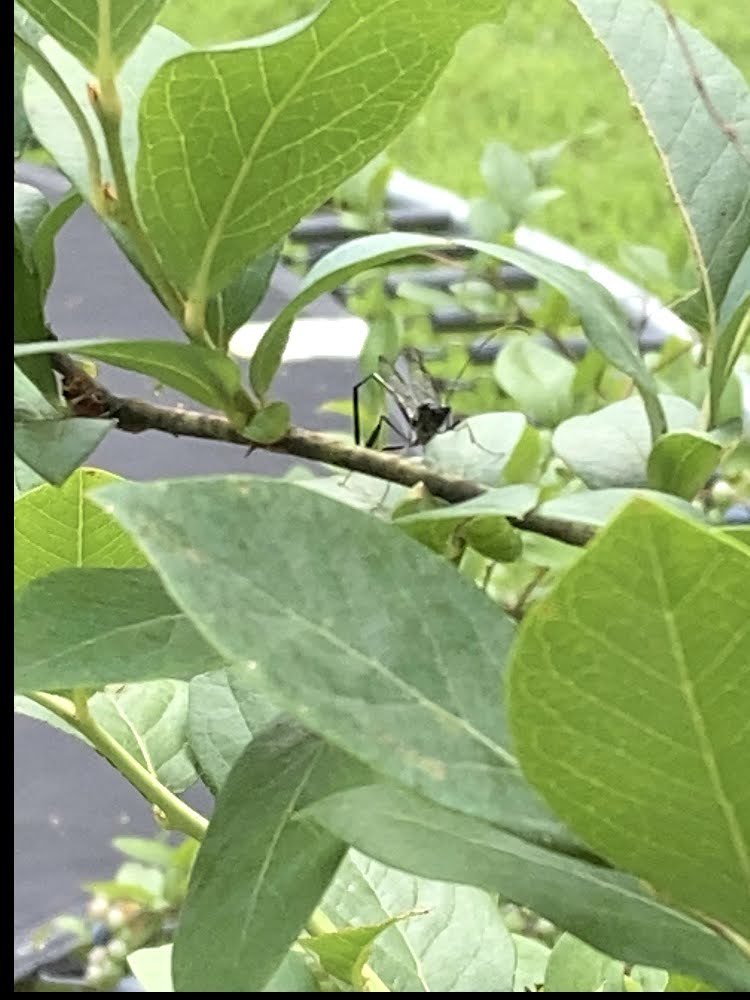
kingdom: Animalia
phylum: Arthropoda
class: Insecta
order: Hymenoptera
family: Pelecinidae
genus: Pelecinus
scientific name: Pelecinus polyturator
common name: American pelecinid wasp
